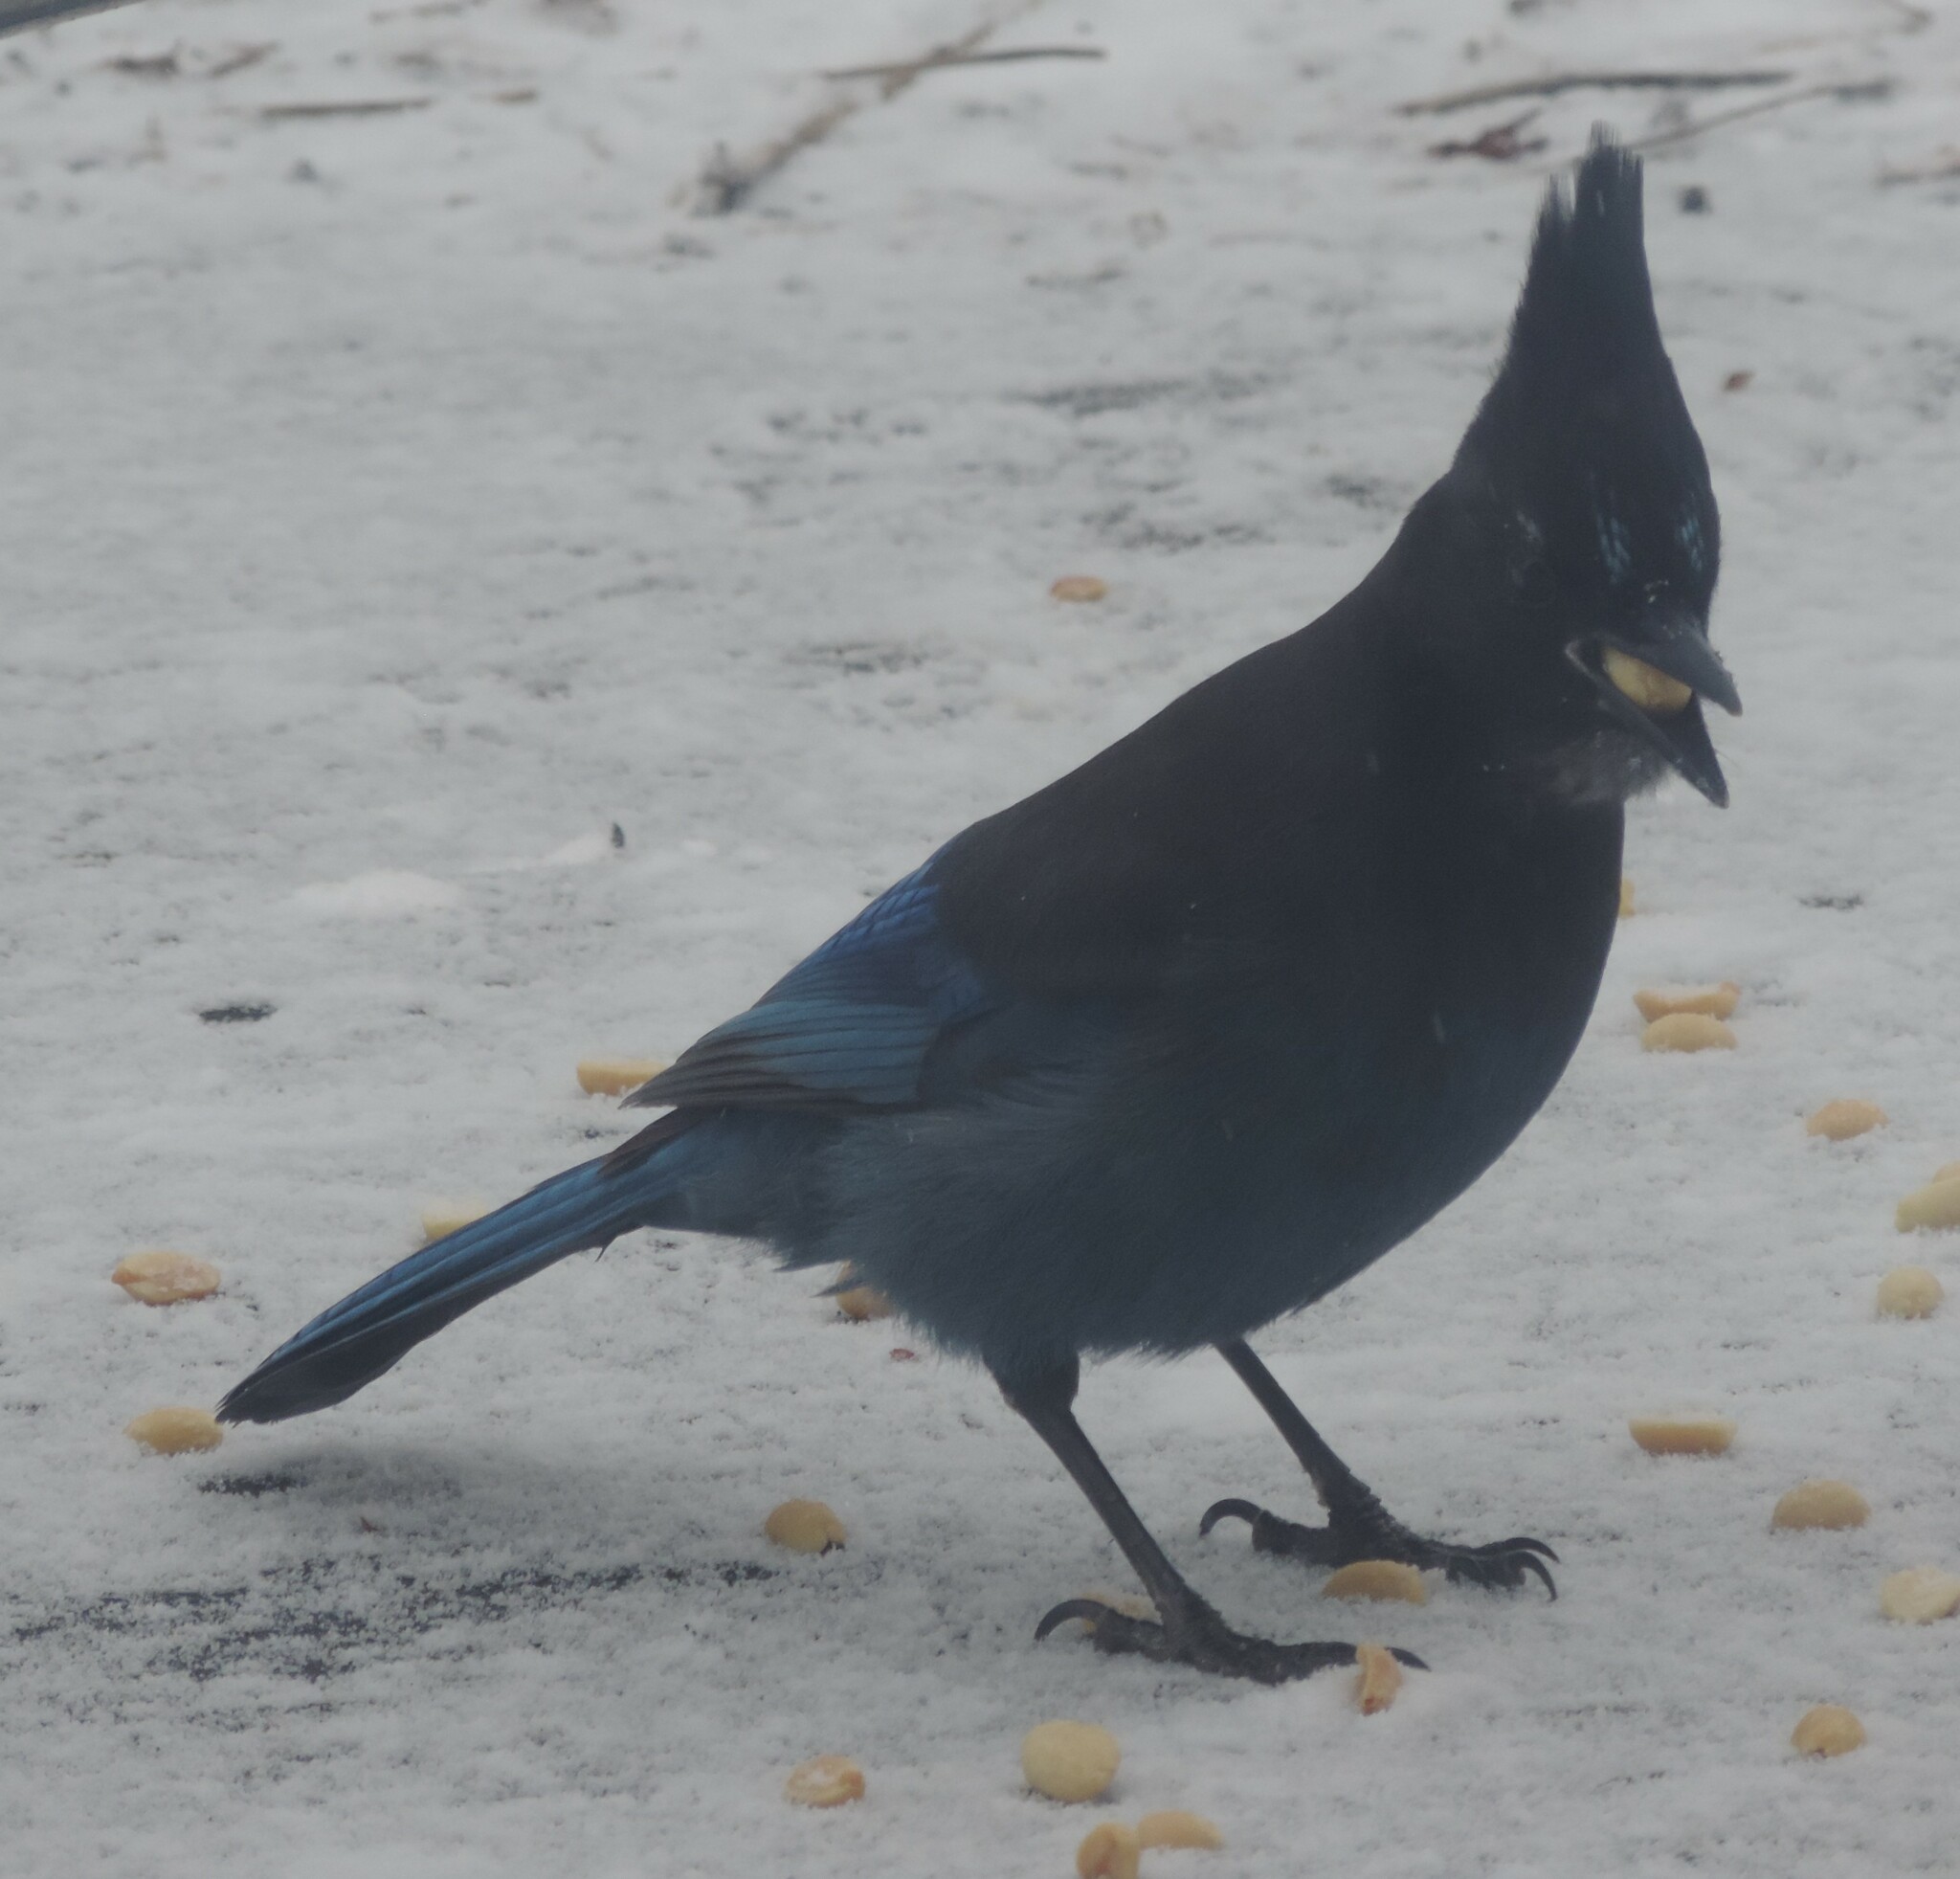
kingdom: Animalia
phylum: Chordata
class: Aves
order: Passeriformes
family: Corvidae
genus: Cyanocitta
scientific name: Cyanocitta stelleri
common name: Steller's jay
